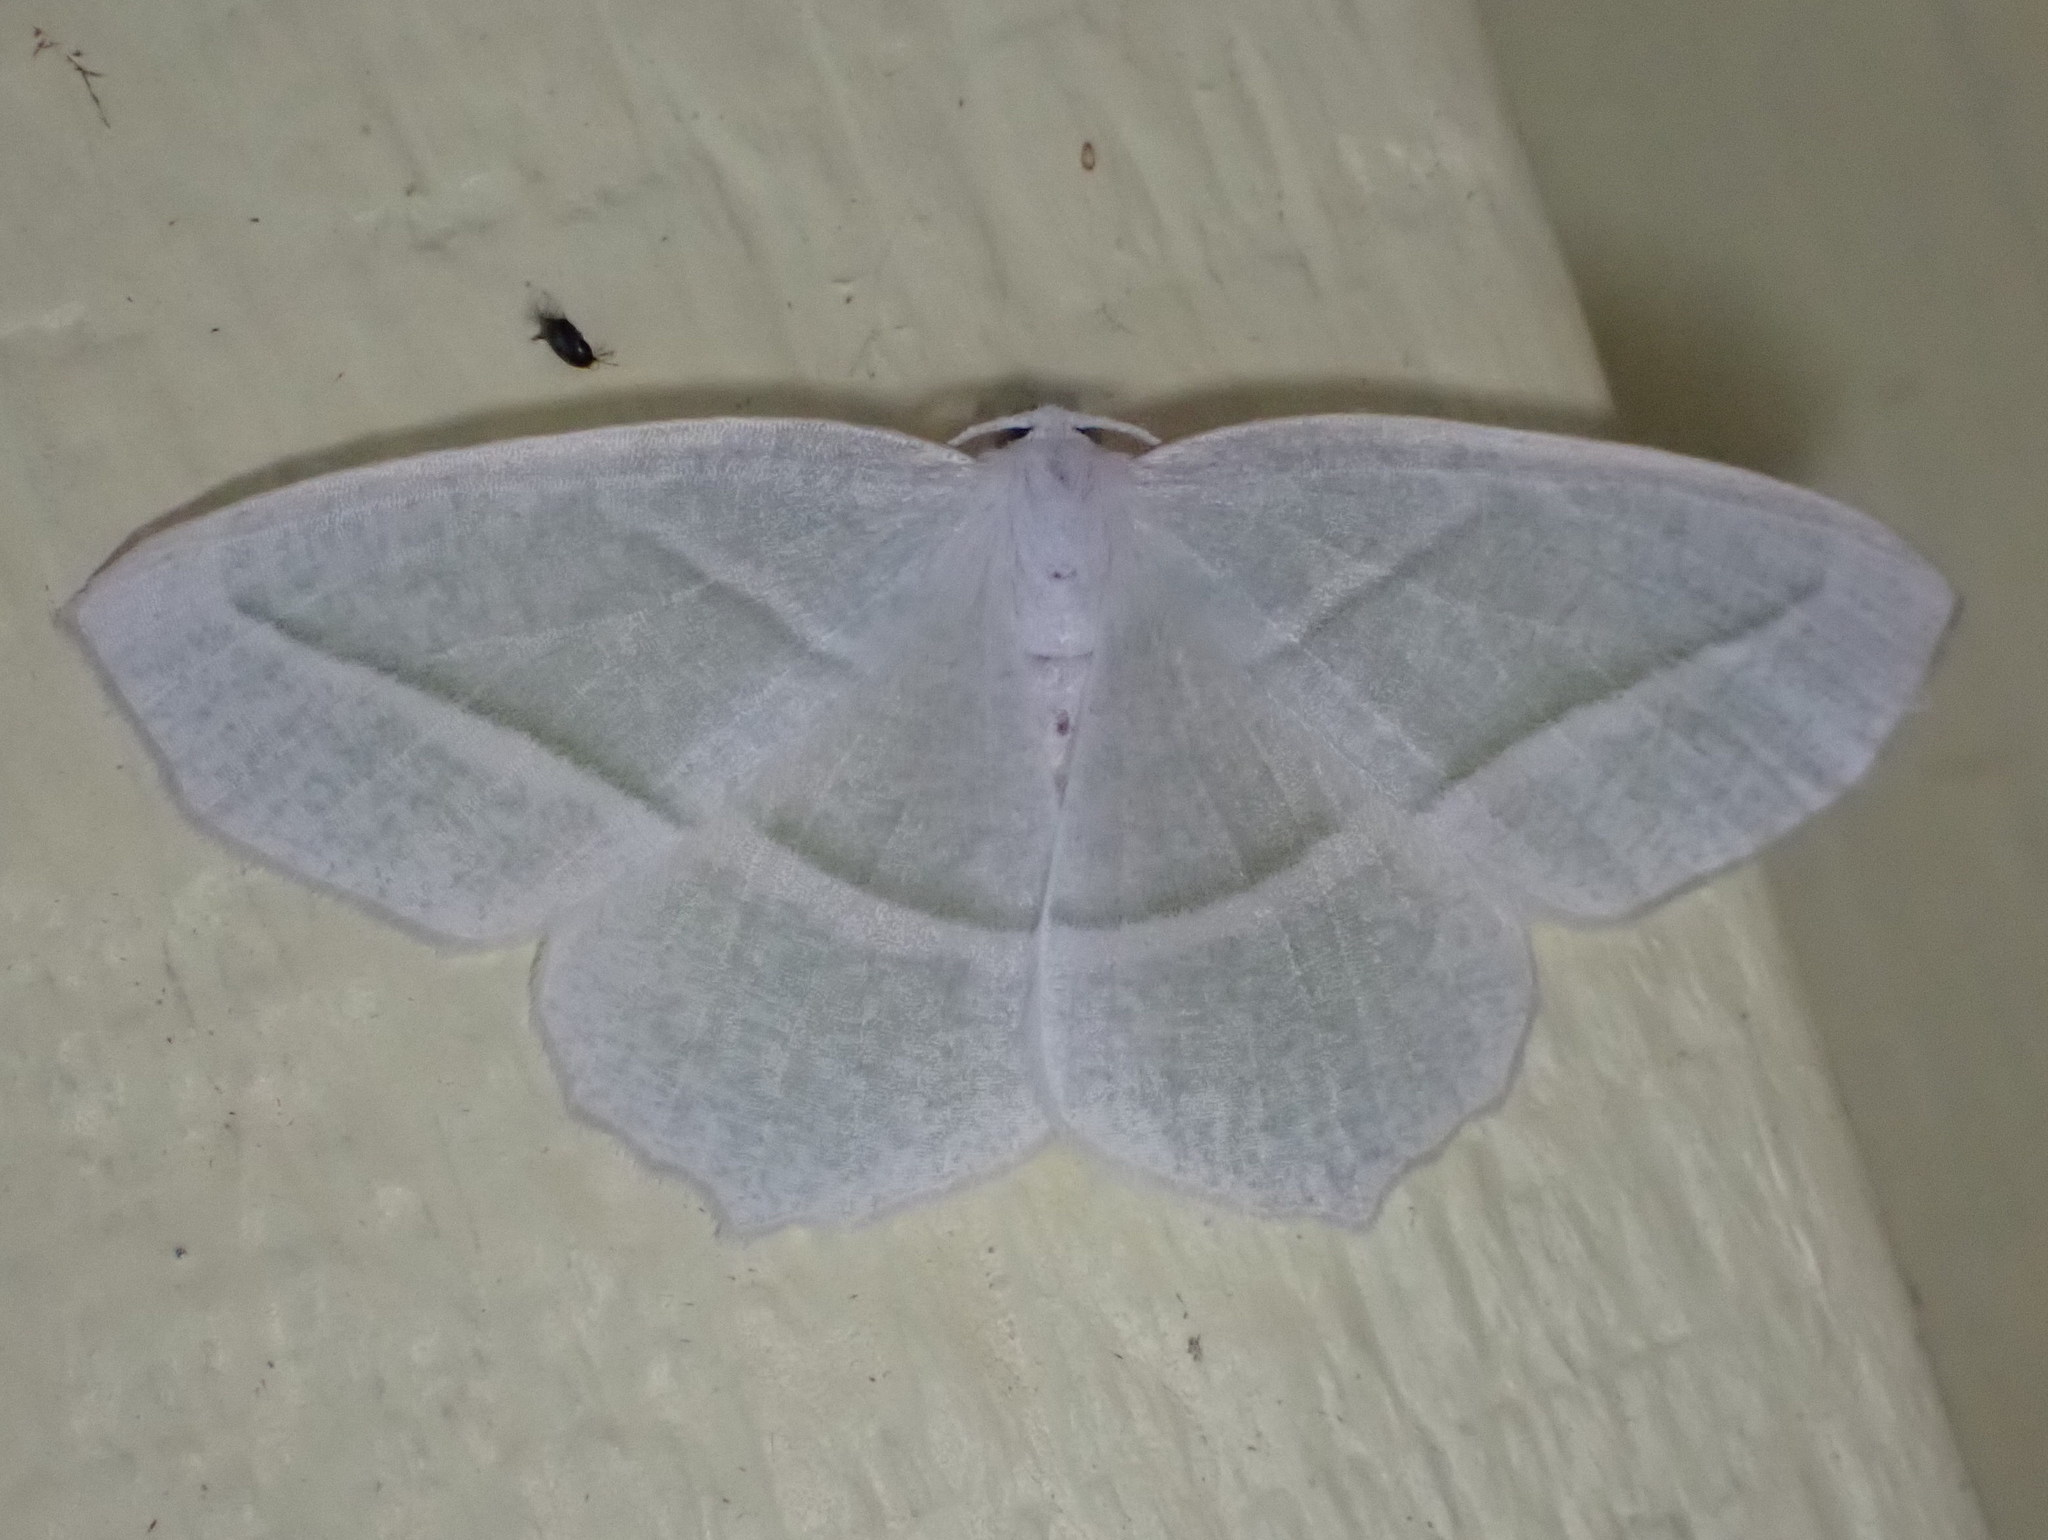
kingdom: Animalia
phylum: Arthropoda
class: Insecta
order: Lepidoptera
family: Geometridae
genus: Campaea
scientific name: Campaea perlata
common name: Fringed looper
